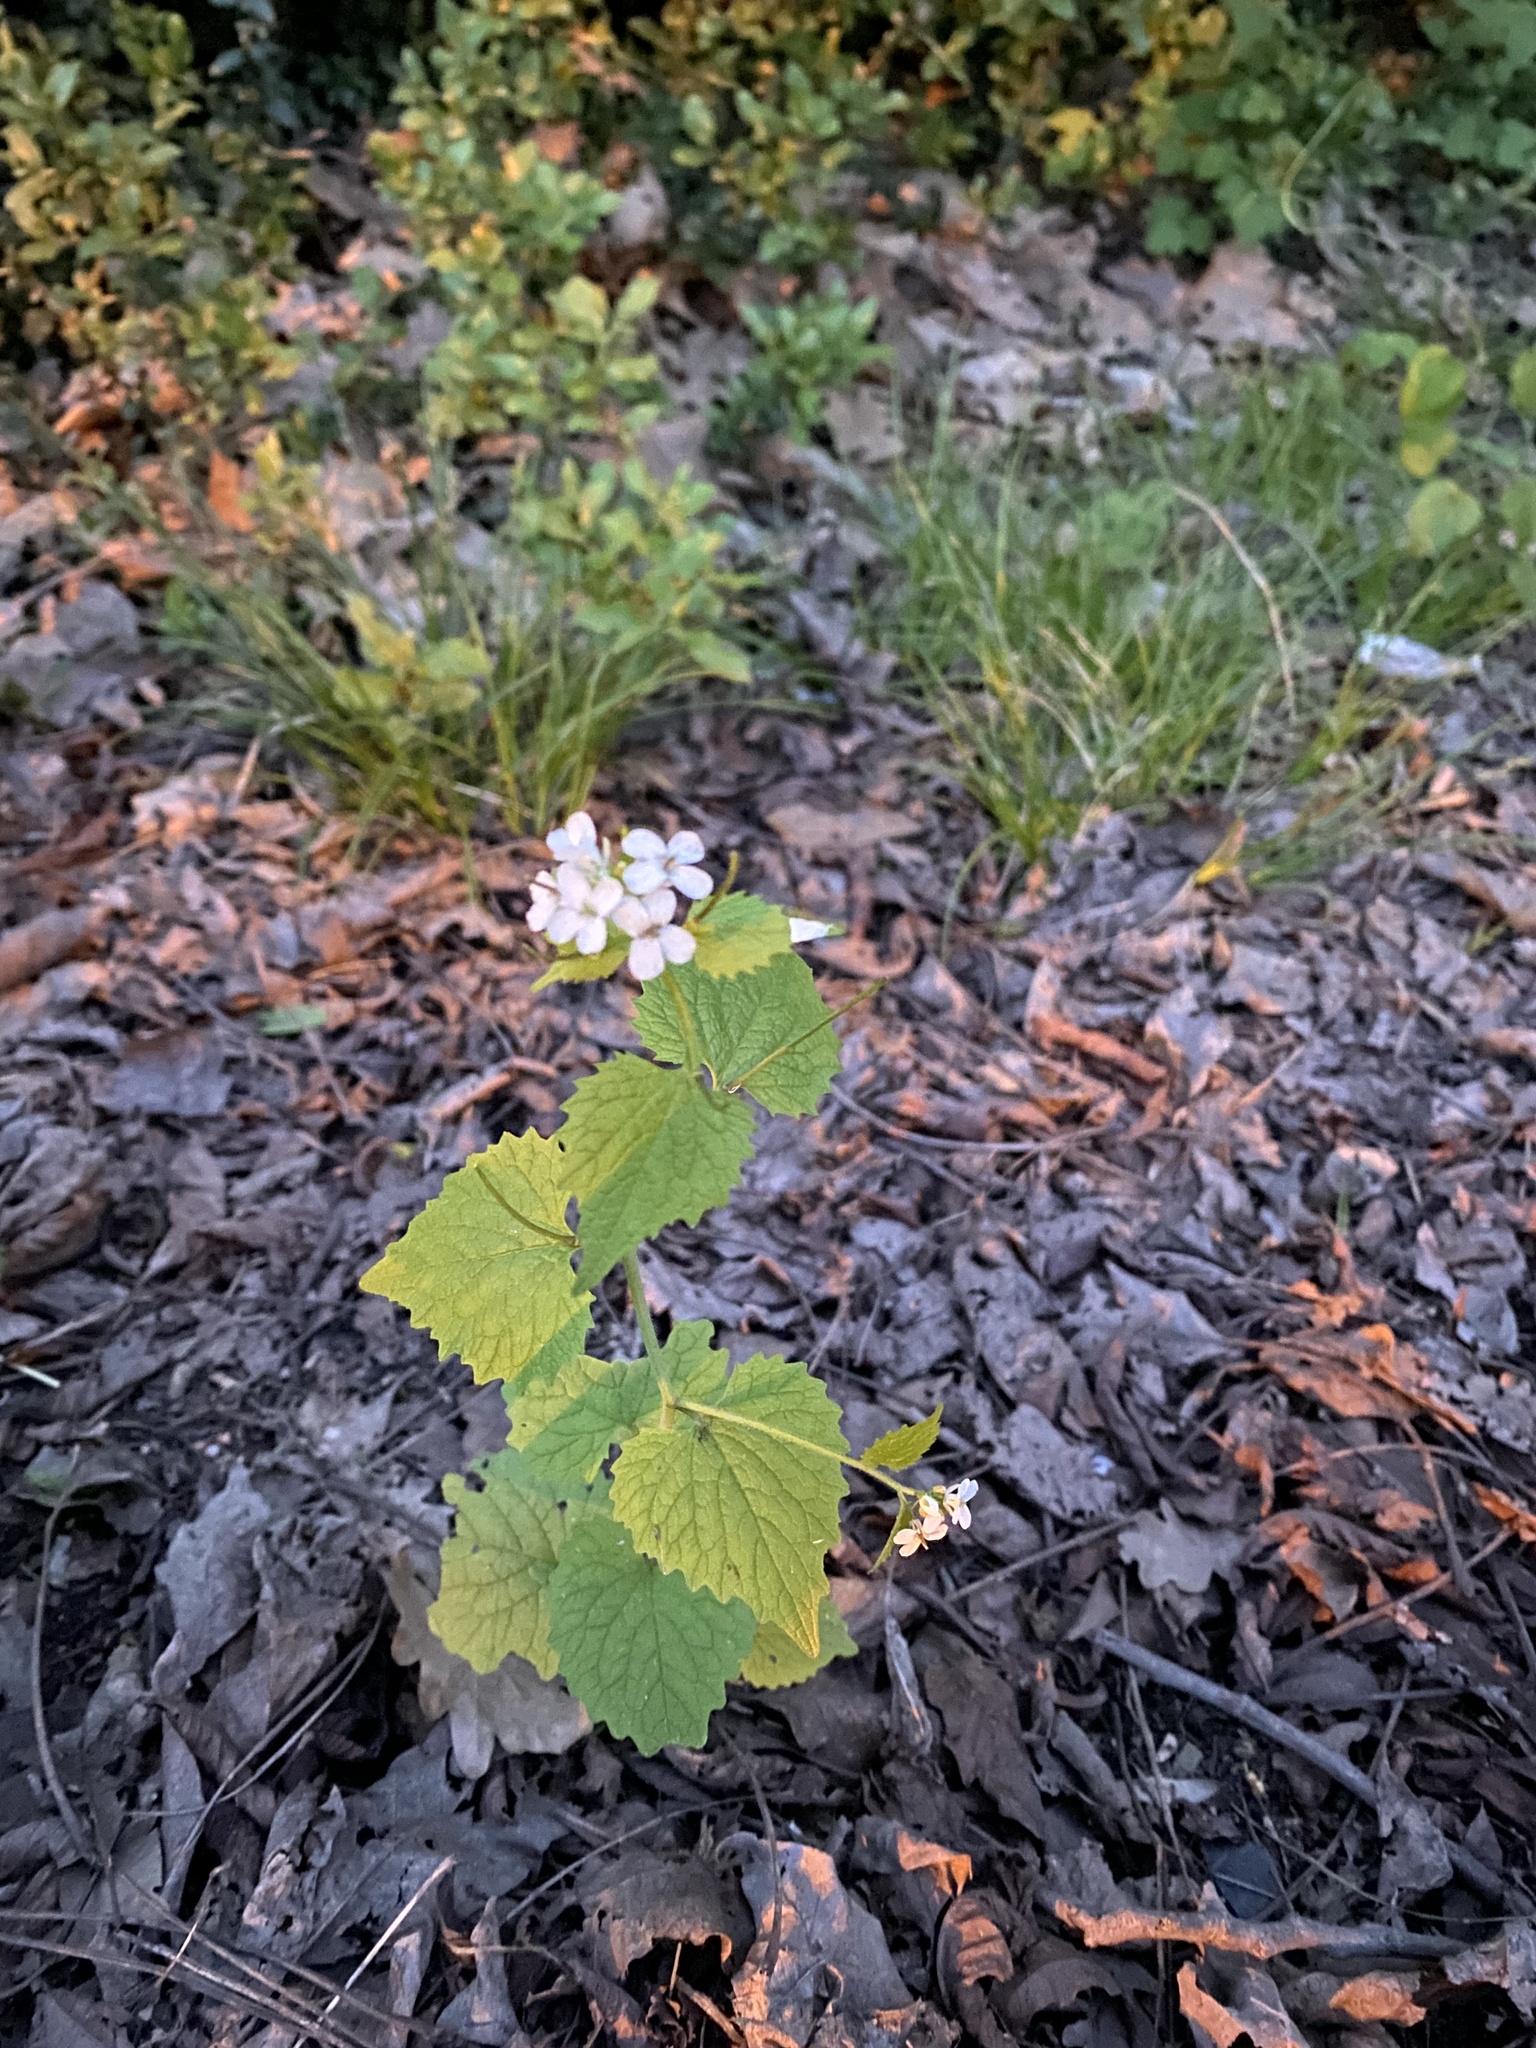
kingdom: Plantae
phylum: Tracheophyta
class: Magnoliopsida
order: Brassicales
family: Brassicaceae
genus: Alliaria
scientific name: Alliaria petiolata
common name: Garlic mustard
